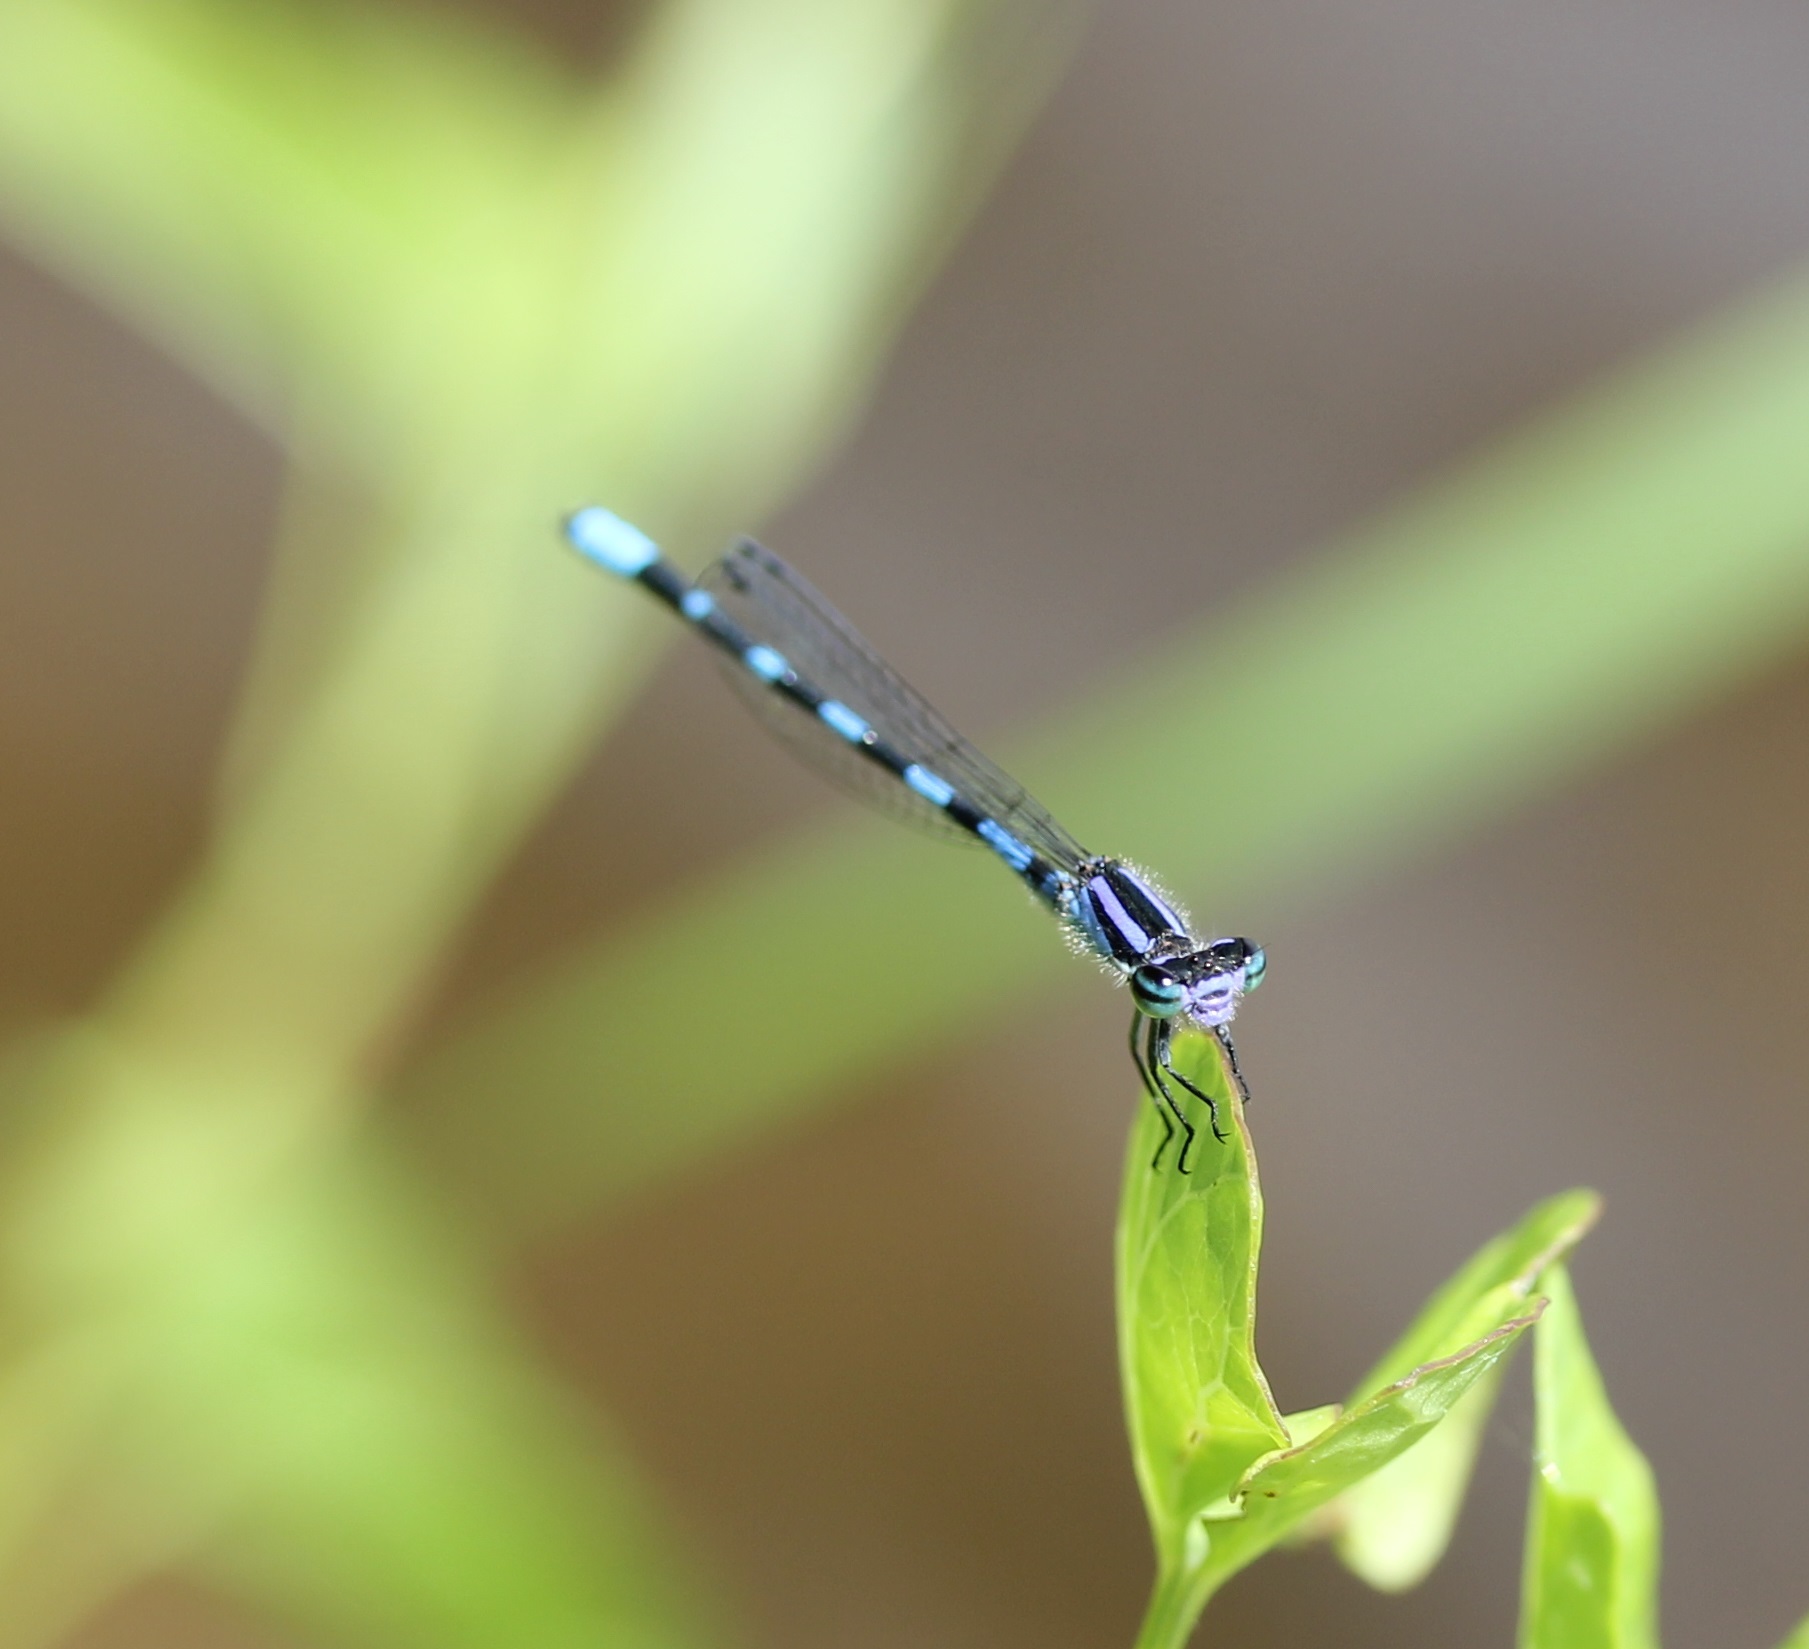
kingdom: Animalia
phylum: Arthropoda
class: Insecta
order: Odonata
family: Coenagrionidae
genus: Enallagma
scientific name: Enallagma minusculum
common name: Little bluet
